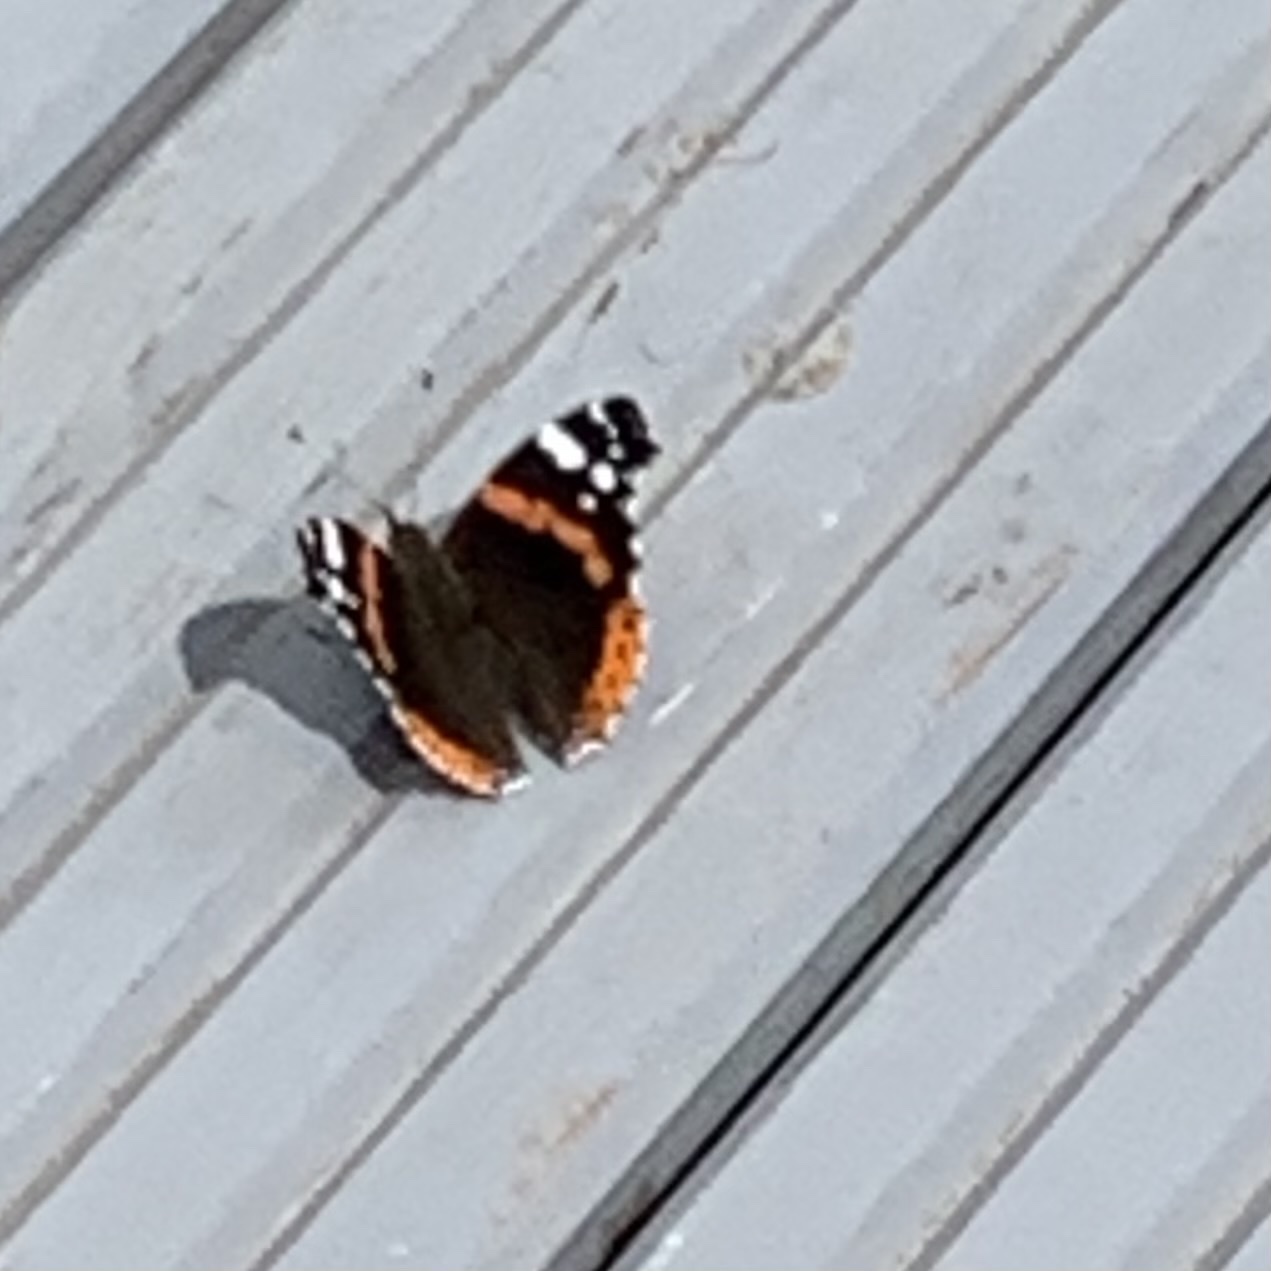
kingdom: Animalia
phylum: Arthropoda
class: Insecta
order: Lepidoptera
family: Nymphalidae
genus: Vanessa
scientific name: Vanessa atalanta
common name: Red admiral
